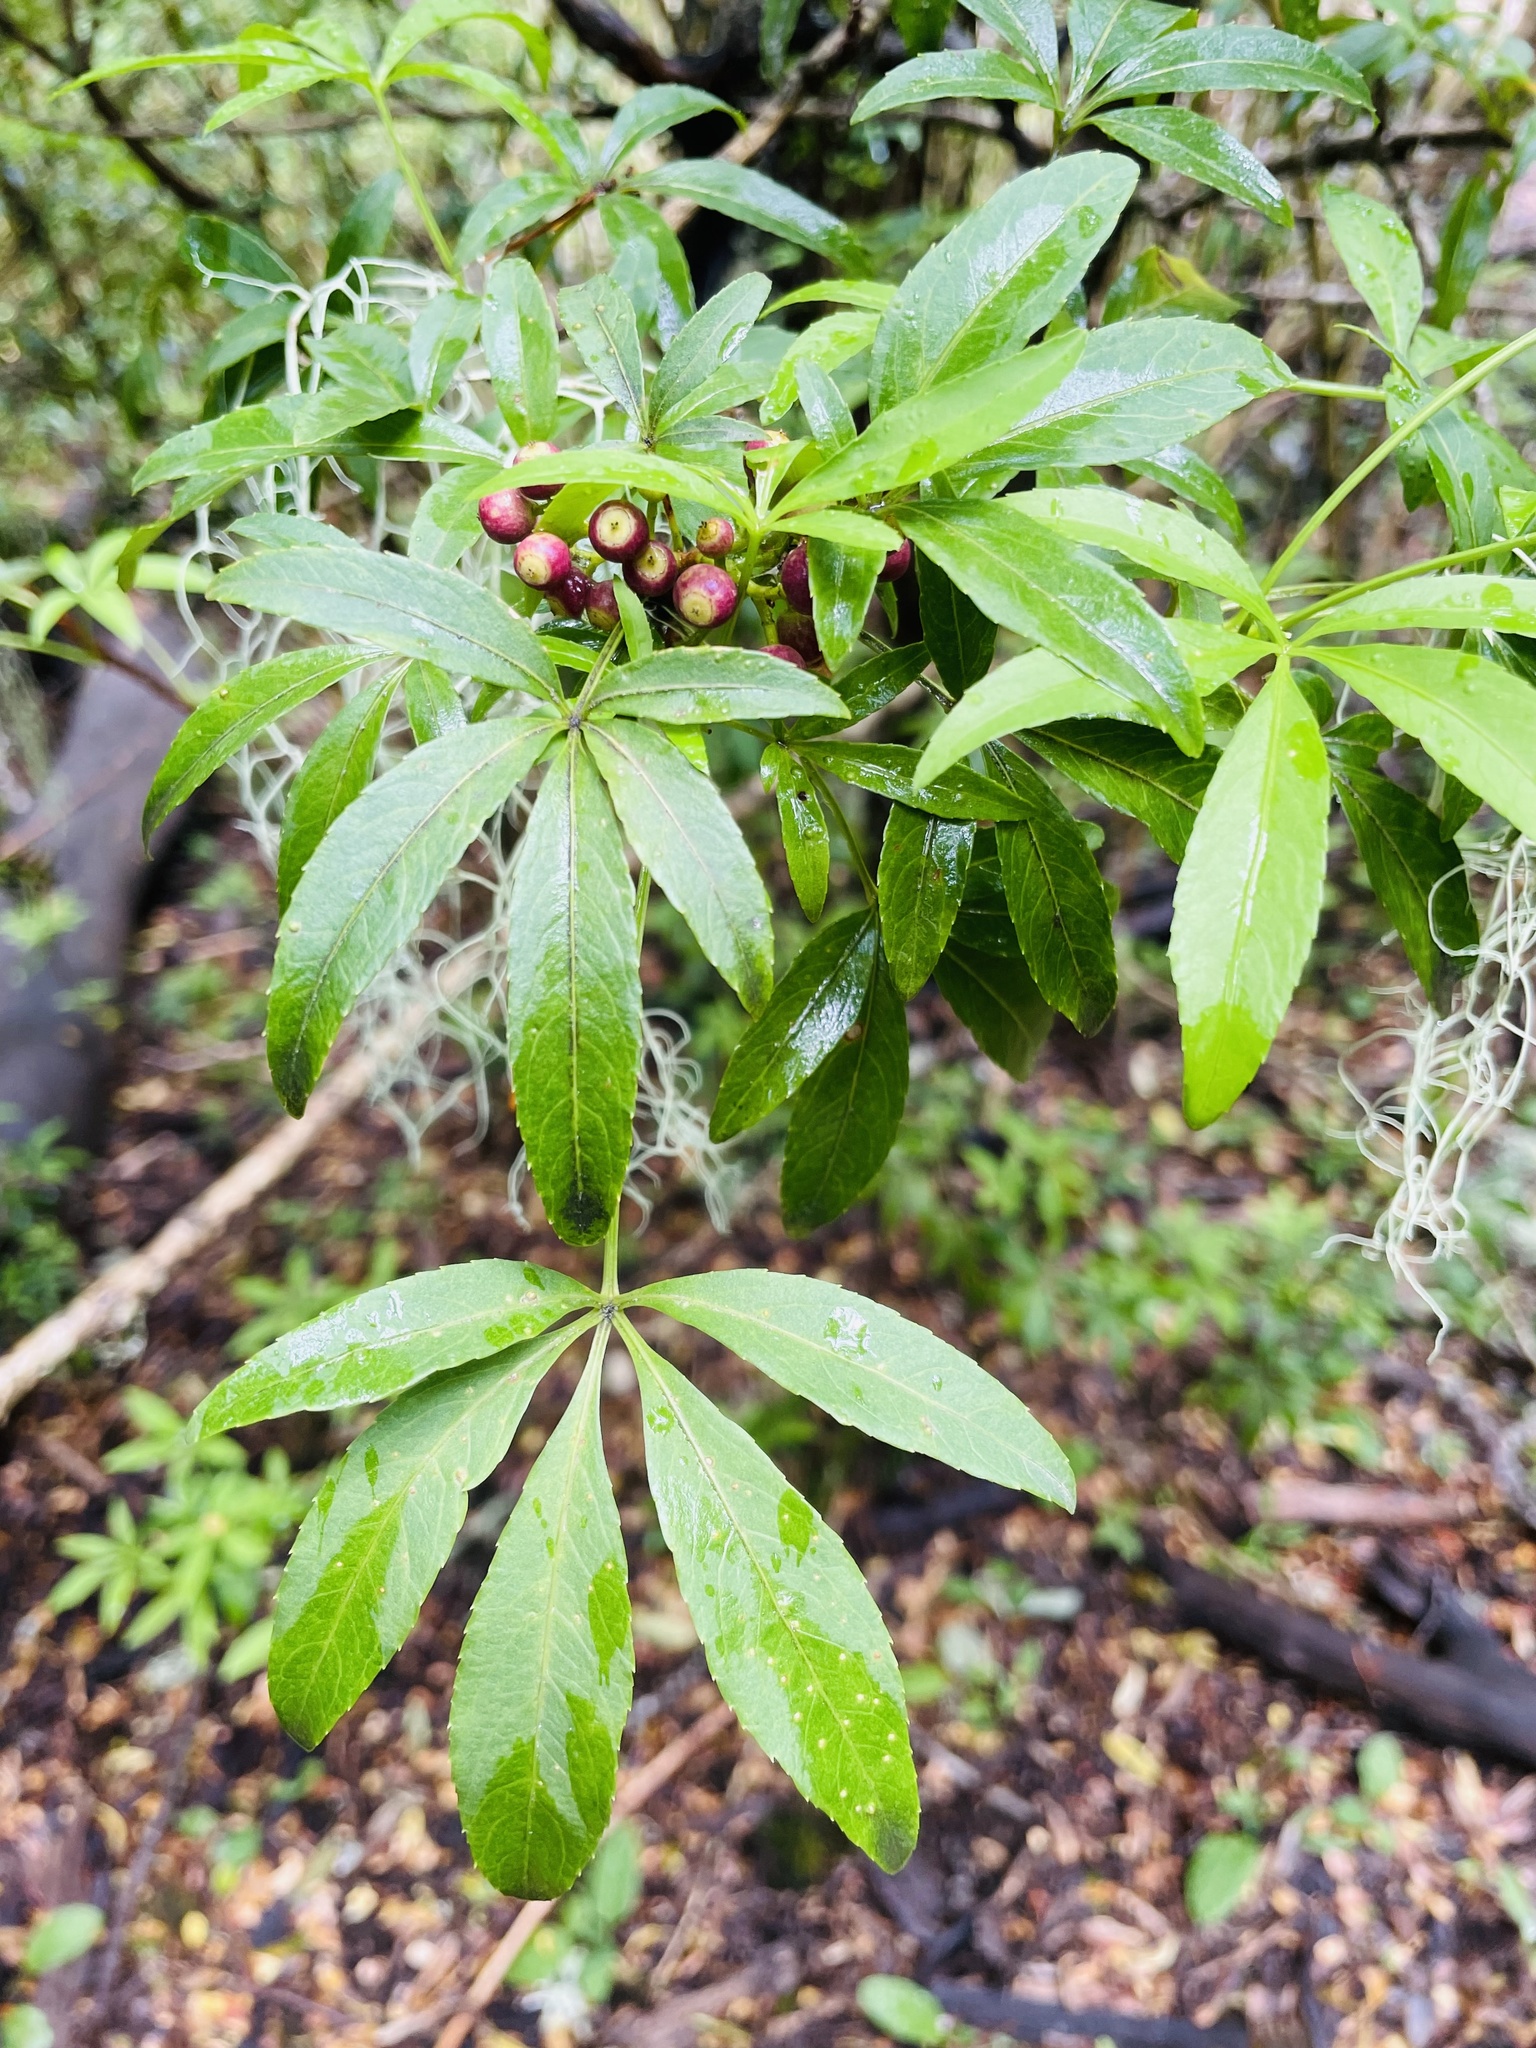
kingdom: Plantae
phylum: Tracheophyta
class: Magnoliopsida
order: Apiales
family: Araliaceae
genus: Raukaua
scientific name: Raukaua laetevirens
